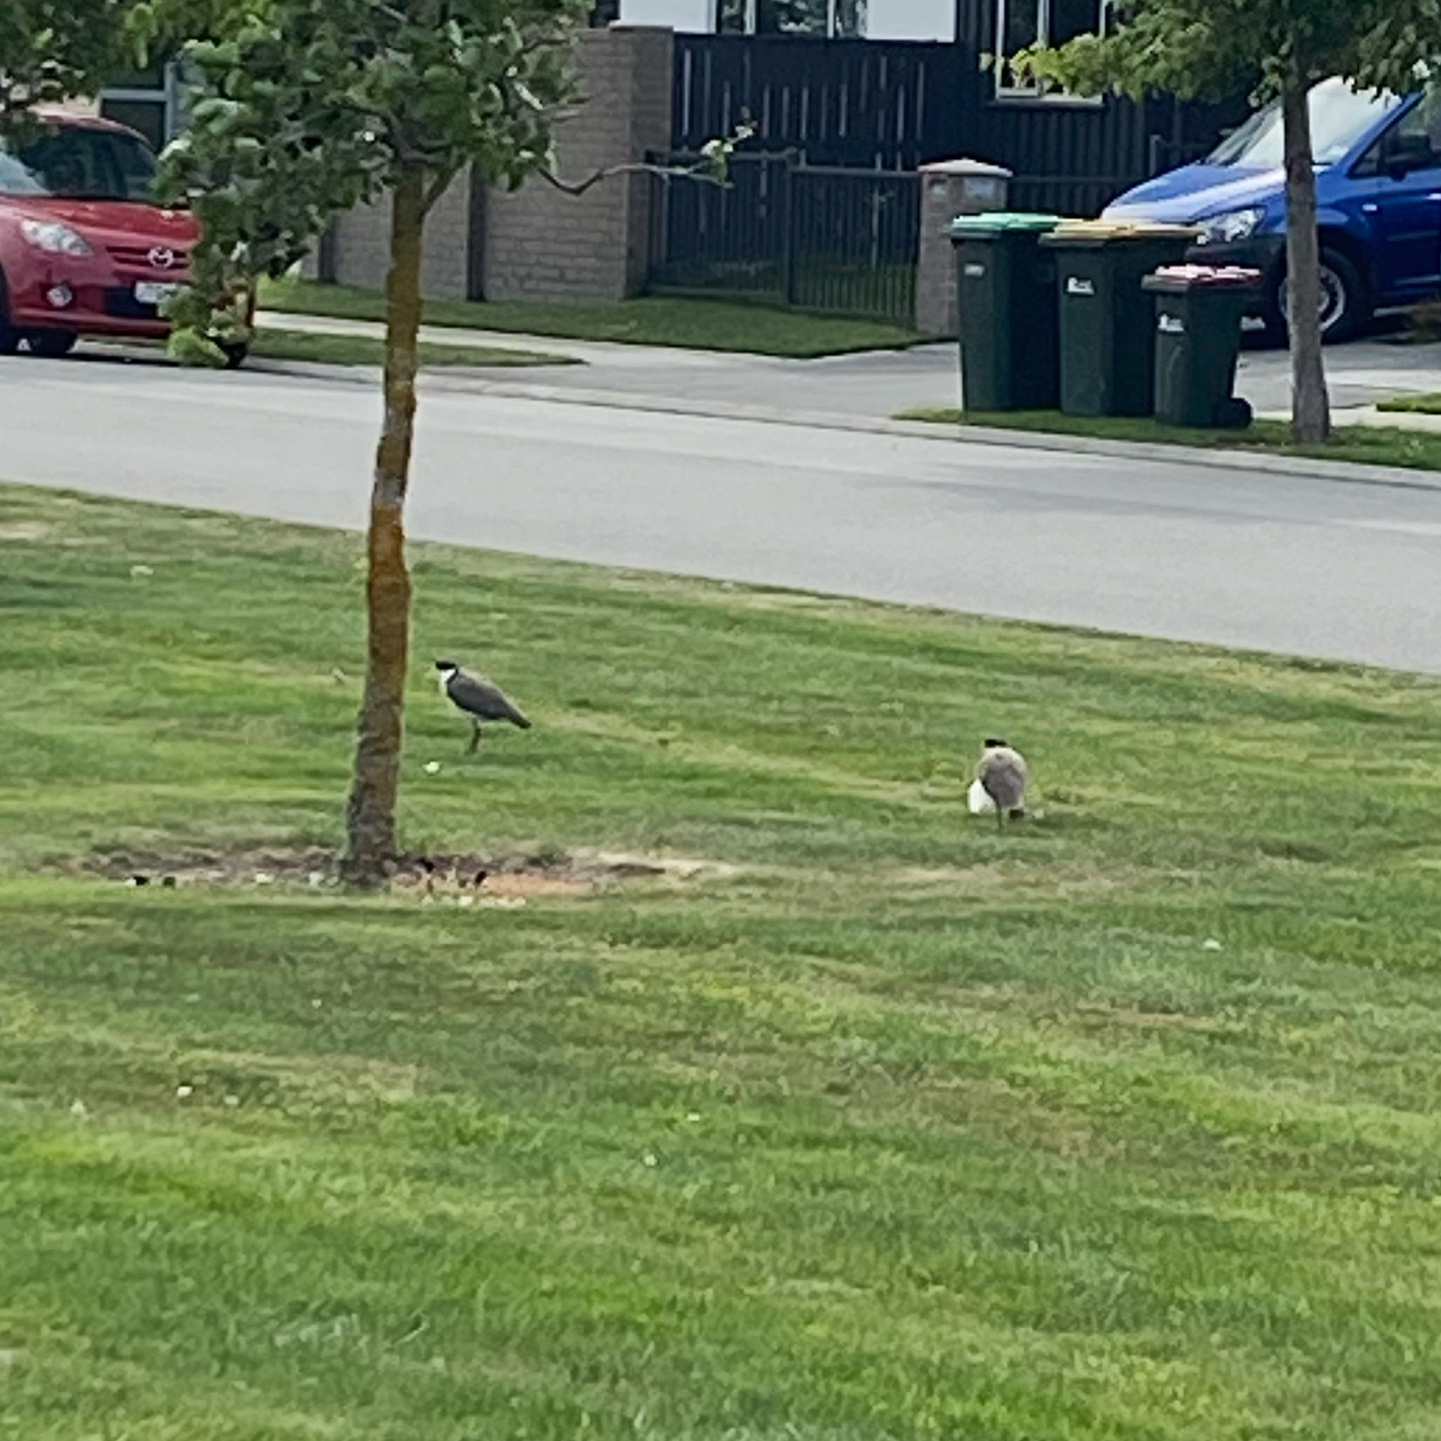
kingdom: Animalia
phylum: Chordata
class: Aves
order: Charadriiformes
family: Charadriidae
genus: Vanellus
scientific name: Vanellus miles
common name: Masked lapwing
